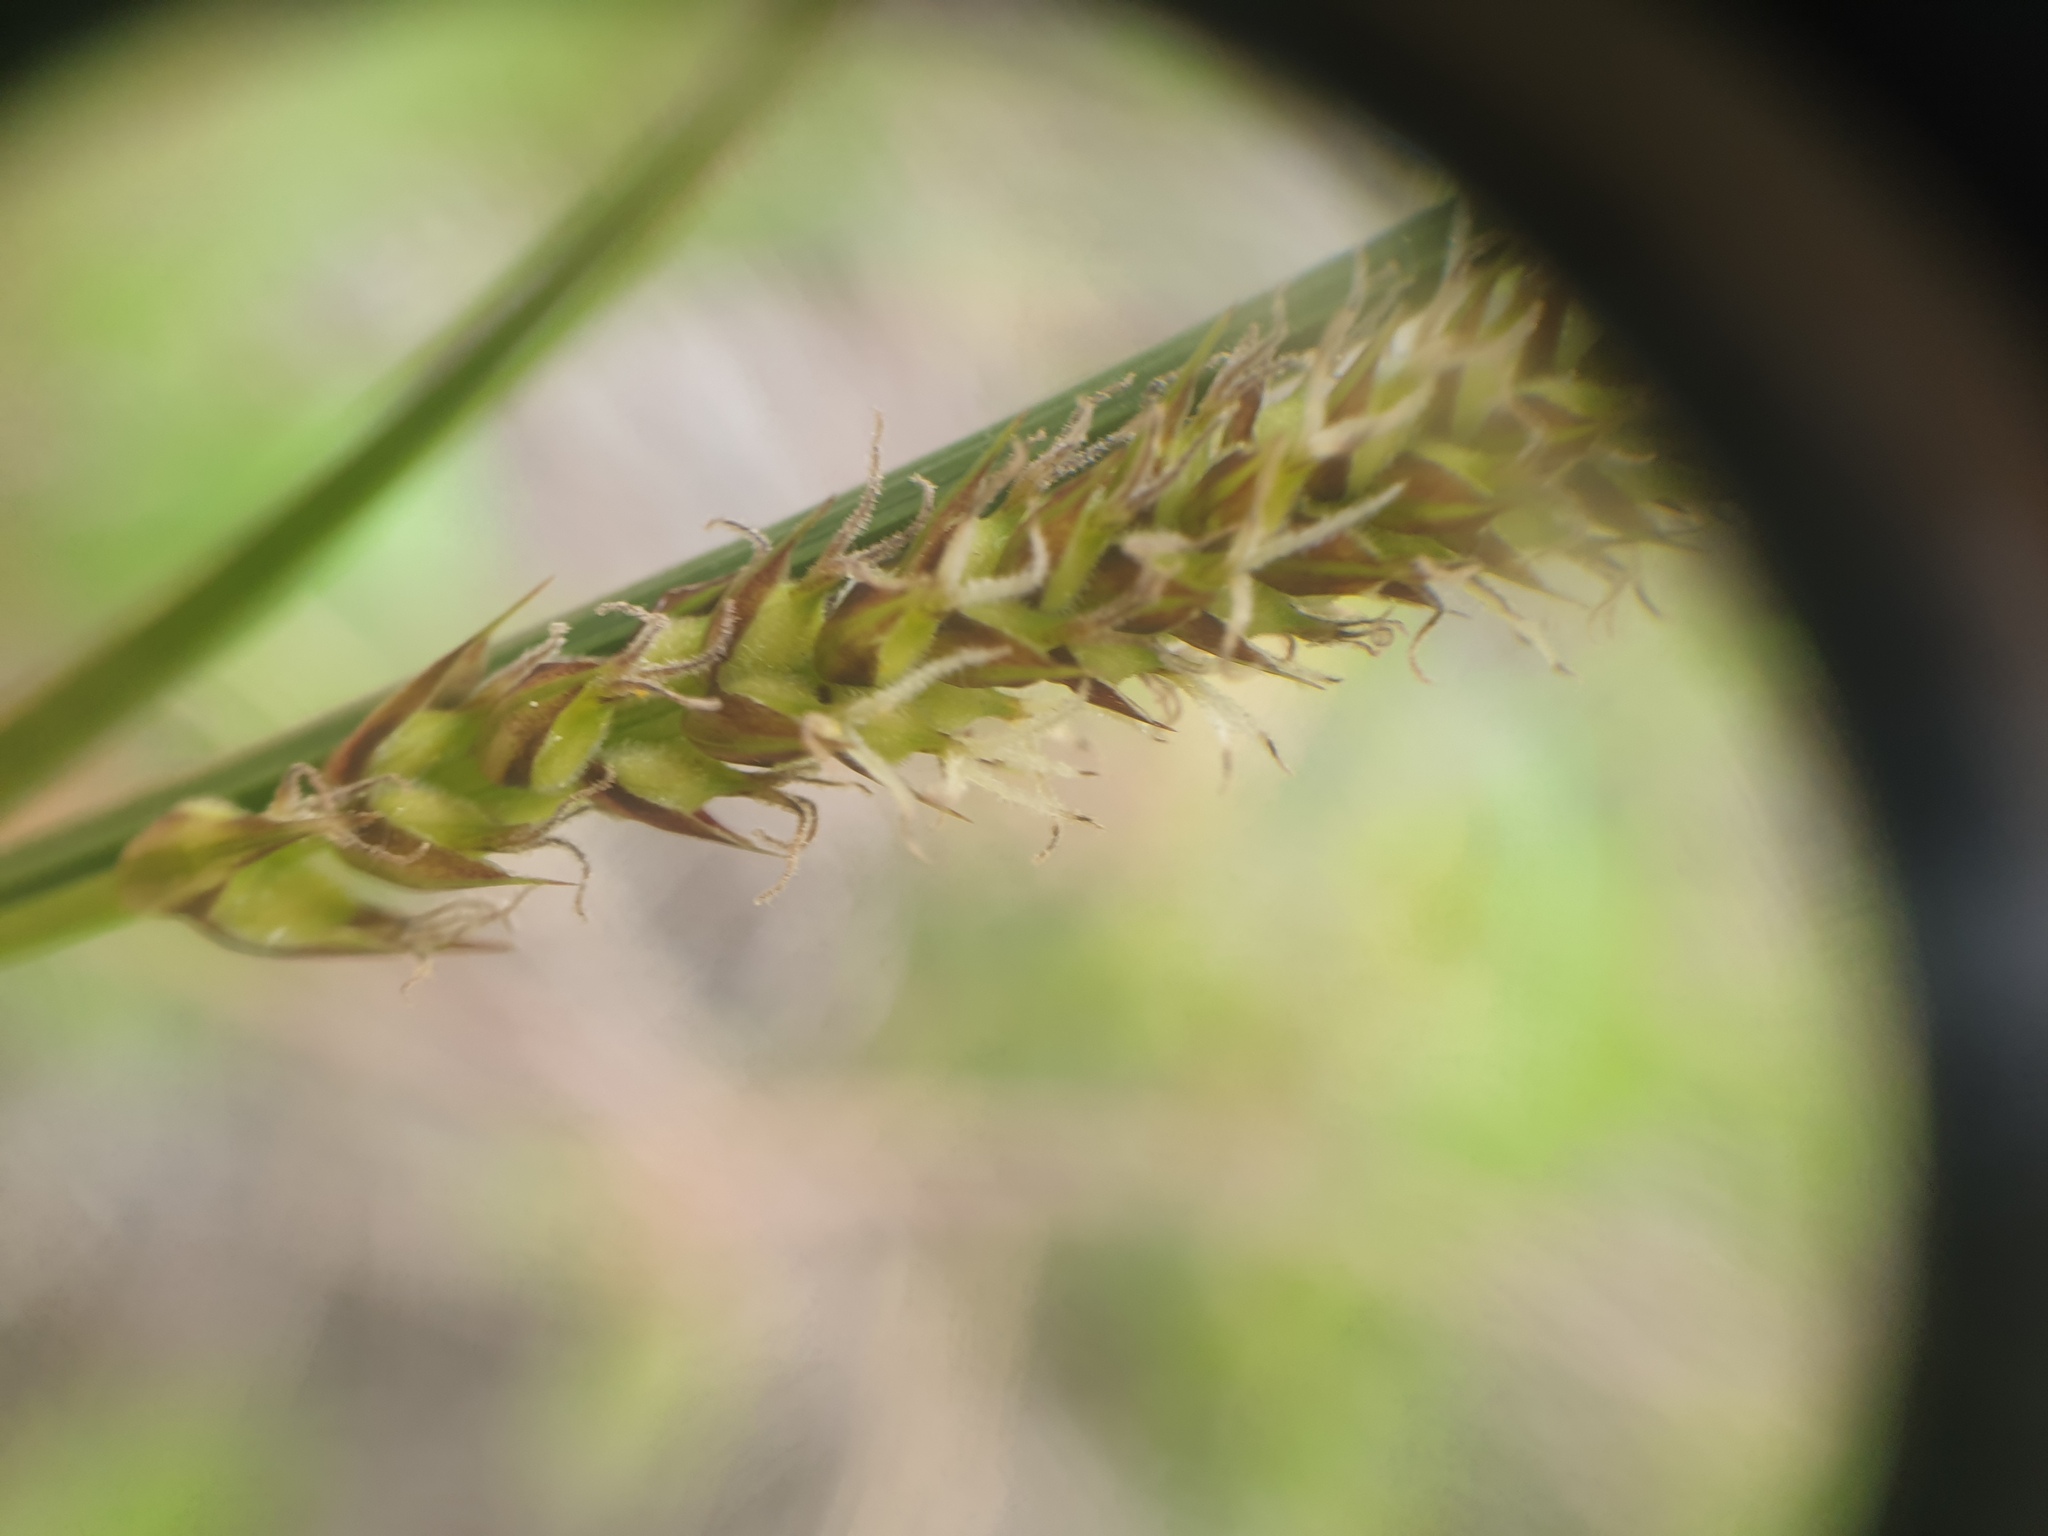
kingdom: Plantae
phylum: Tracheophyta
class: Liliopsida
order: Poales
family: Cyperaceae
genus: Carex
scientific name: Carex pellita
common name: Woolly sedge
